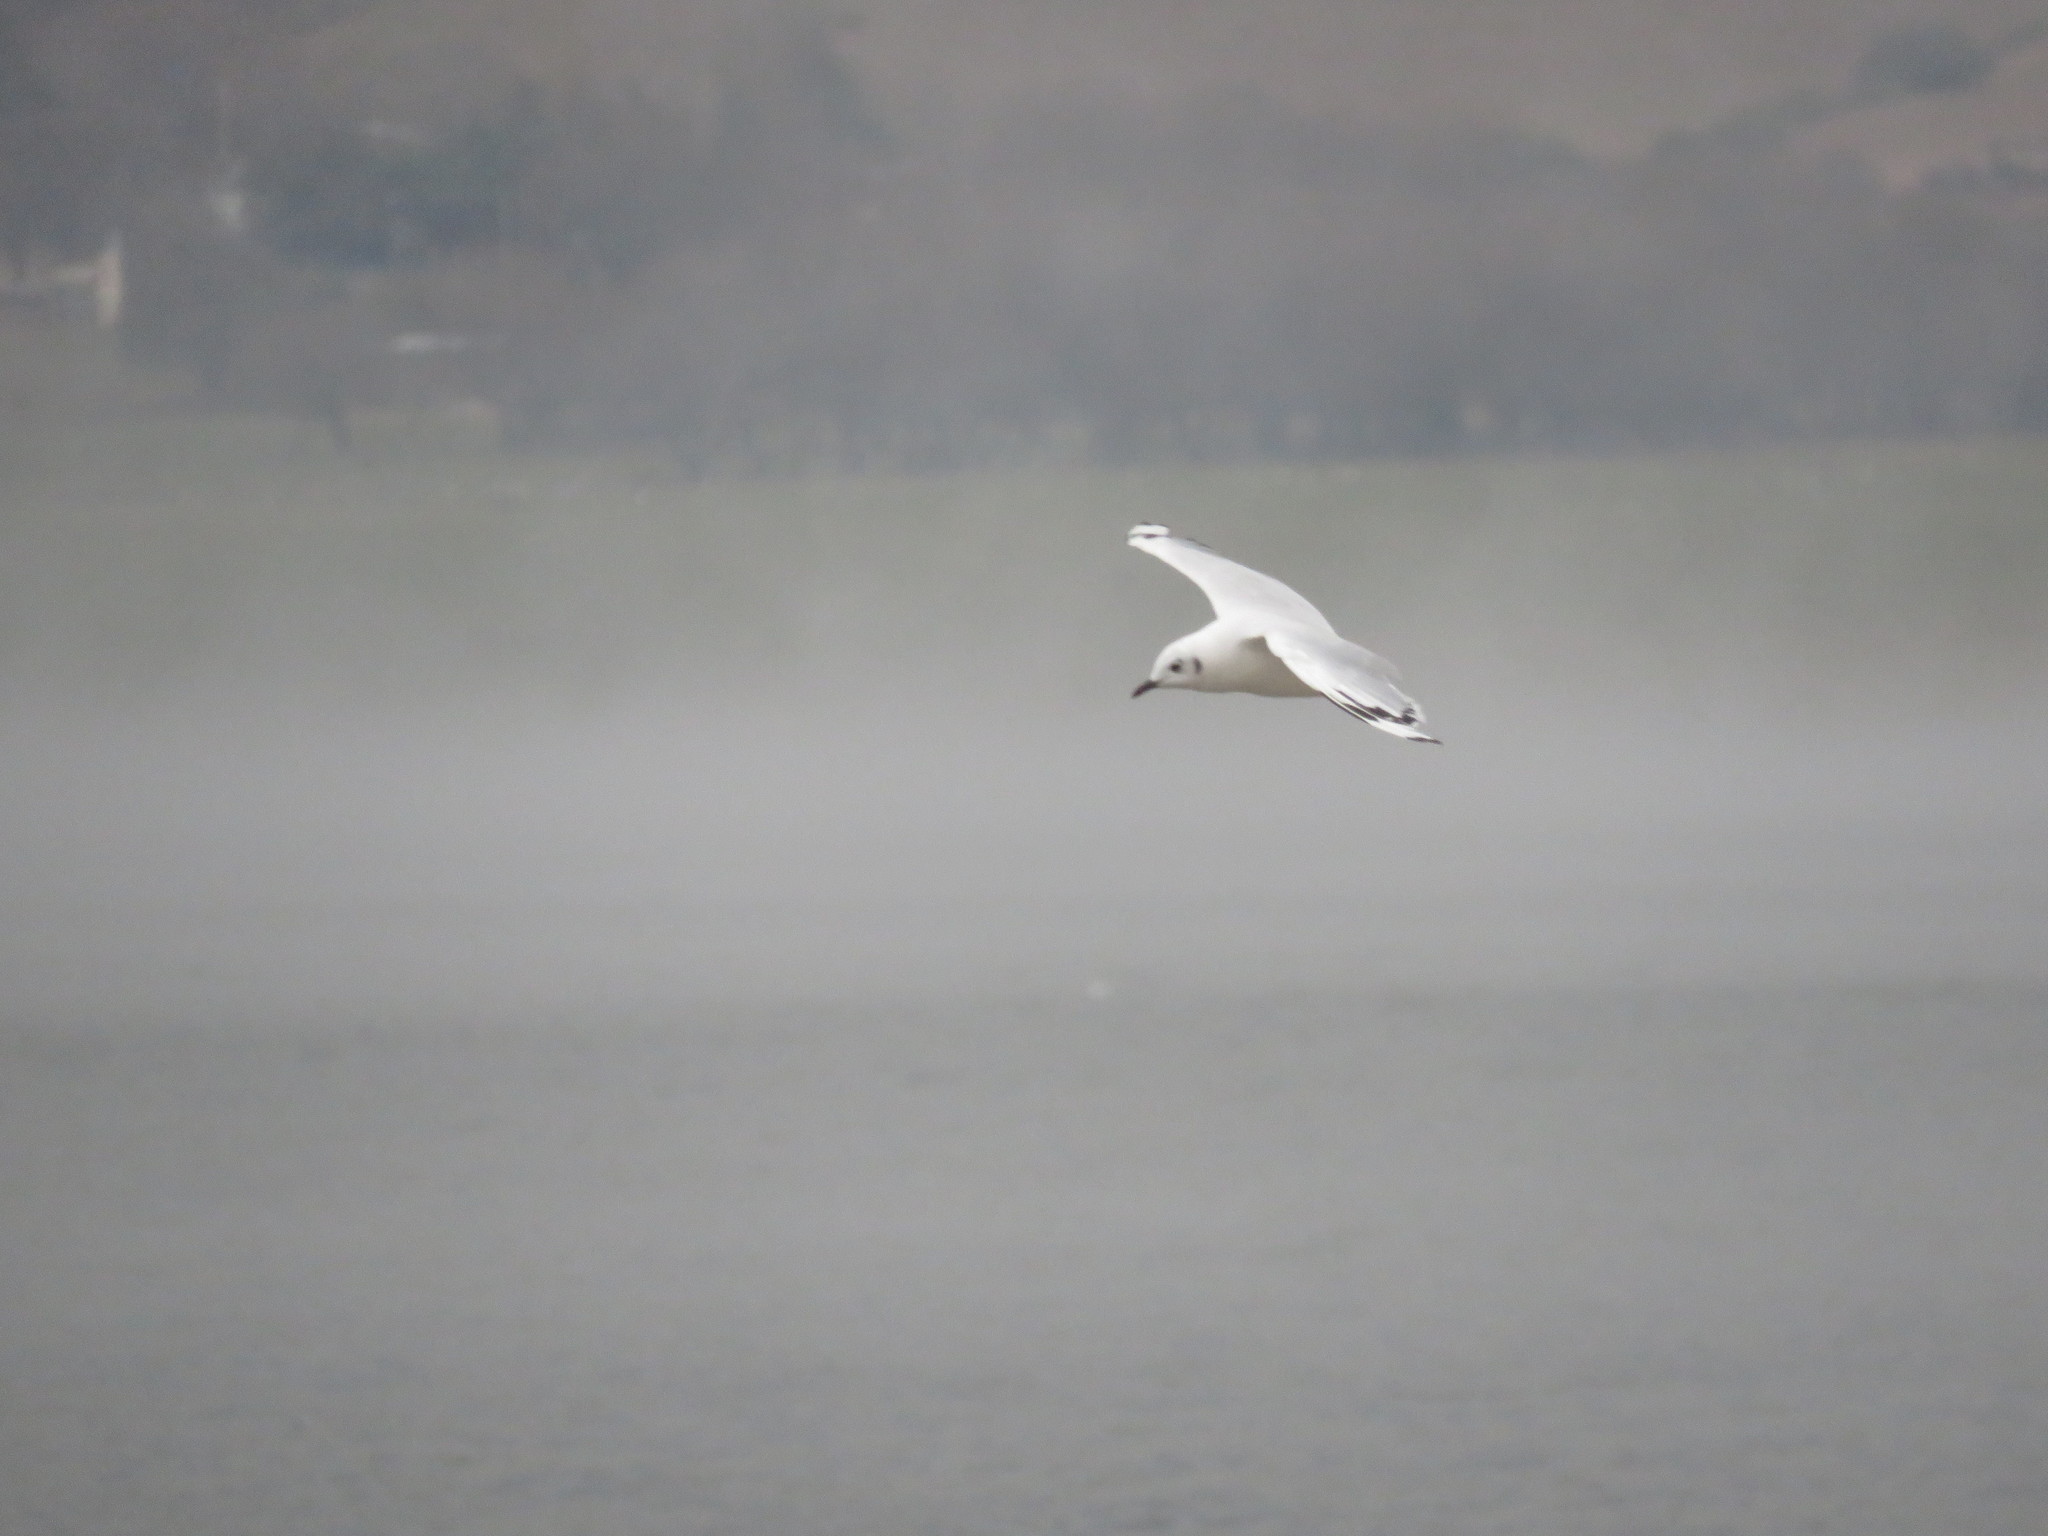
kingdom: Animalia
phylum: Chordata
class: Aves
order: Charadriiformes
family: Laridae
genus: Chroicocephalus
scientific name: Chroicocephalus serranus
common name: Andean gull
